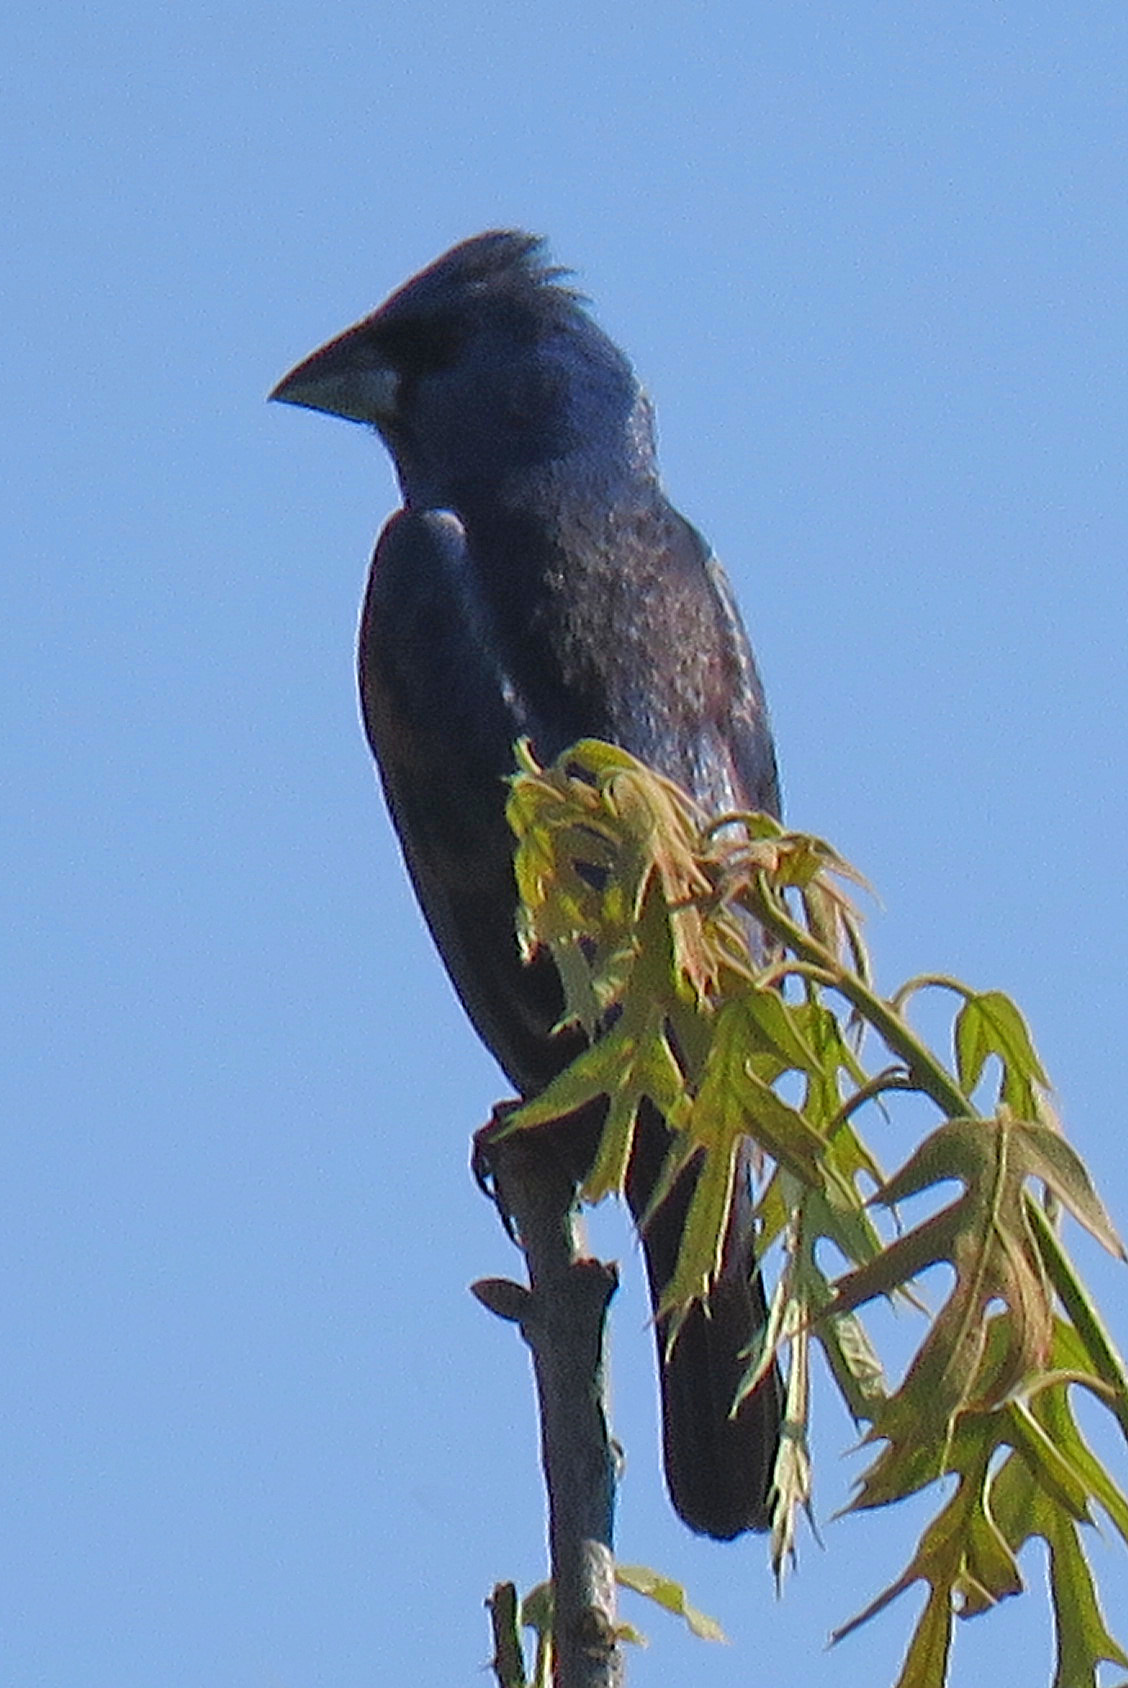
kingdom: Animalia
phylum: Chordata
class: Aves
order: Passeriformes
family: Cardinalidae
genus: Passerina
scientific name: Passerina caerulea
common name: Blue grosbeak
